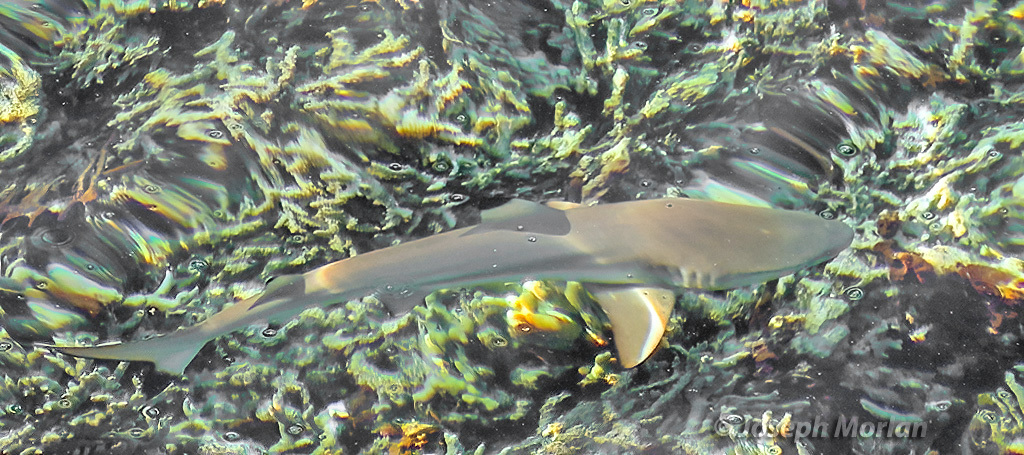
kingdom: Animalia
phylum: Chordata
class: Elasmobranchii
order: Carcharhiniformes
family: Carcharhinidae
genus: Carcharhinus
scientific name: Carcharhinus melanopterus
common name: Blacktip reef shark
